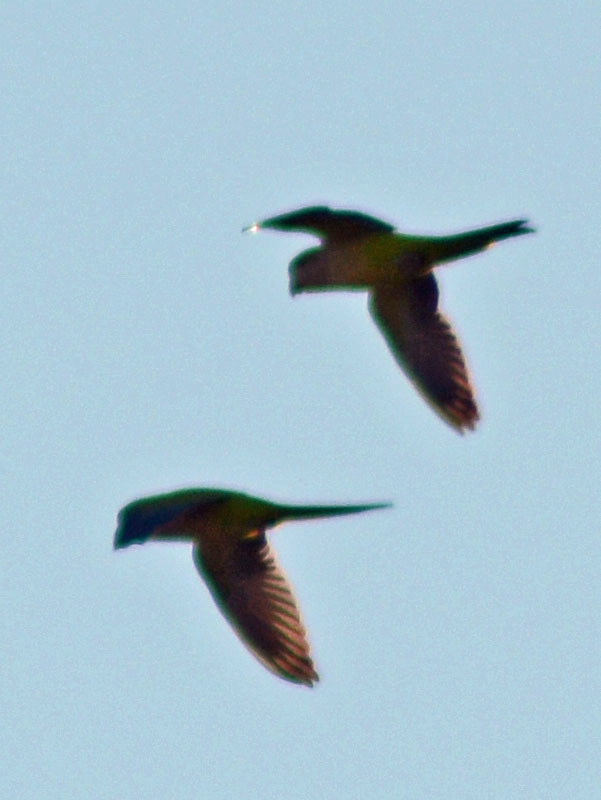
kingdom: Animalia
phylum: Chordata
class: Aves
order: Psittaciformes
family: Psittacidae
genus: Myiopsitta
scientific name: Myiopsitta monachus
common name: Monk parakeet
